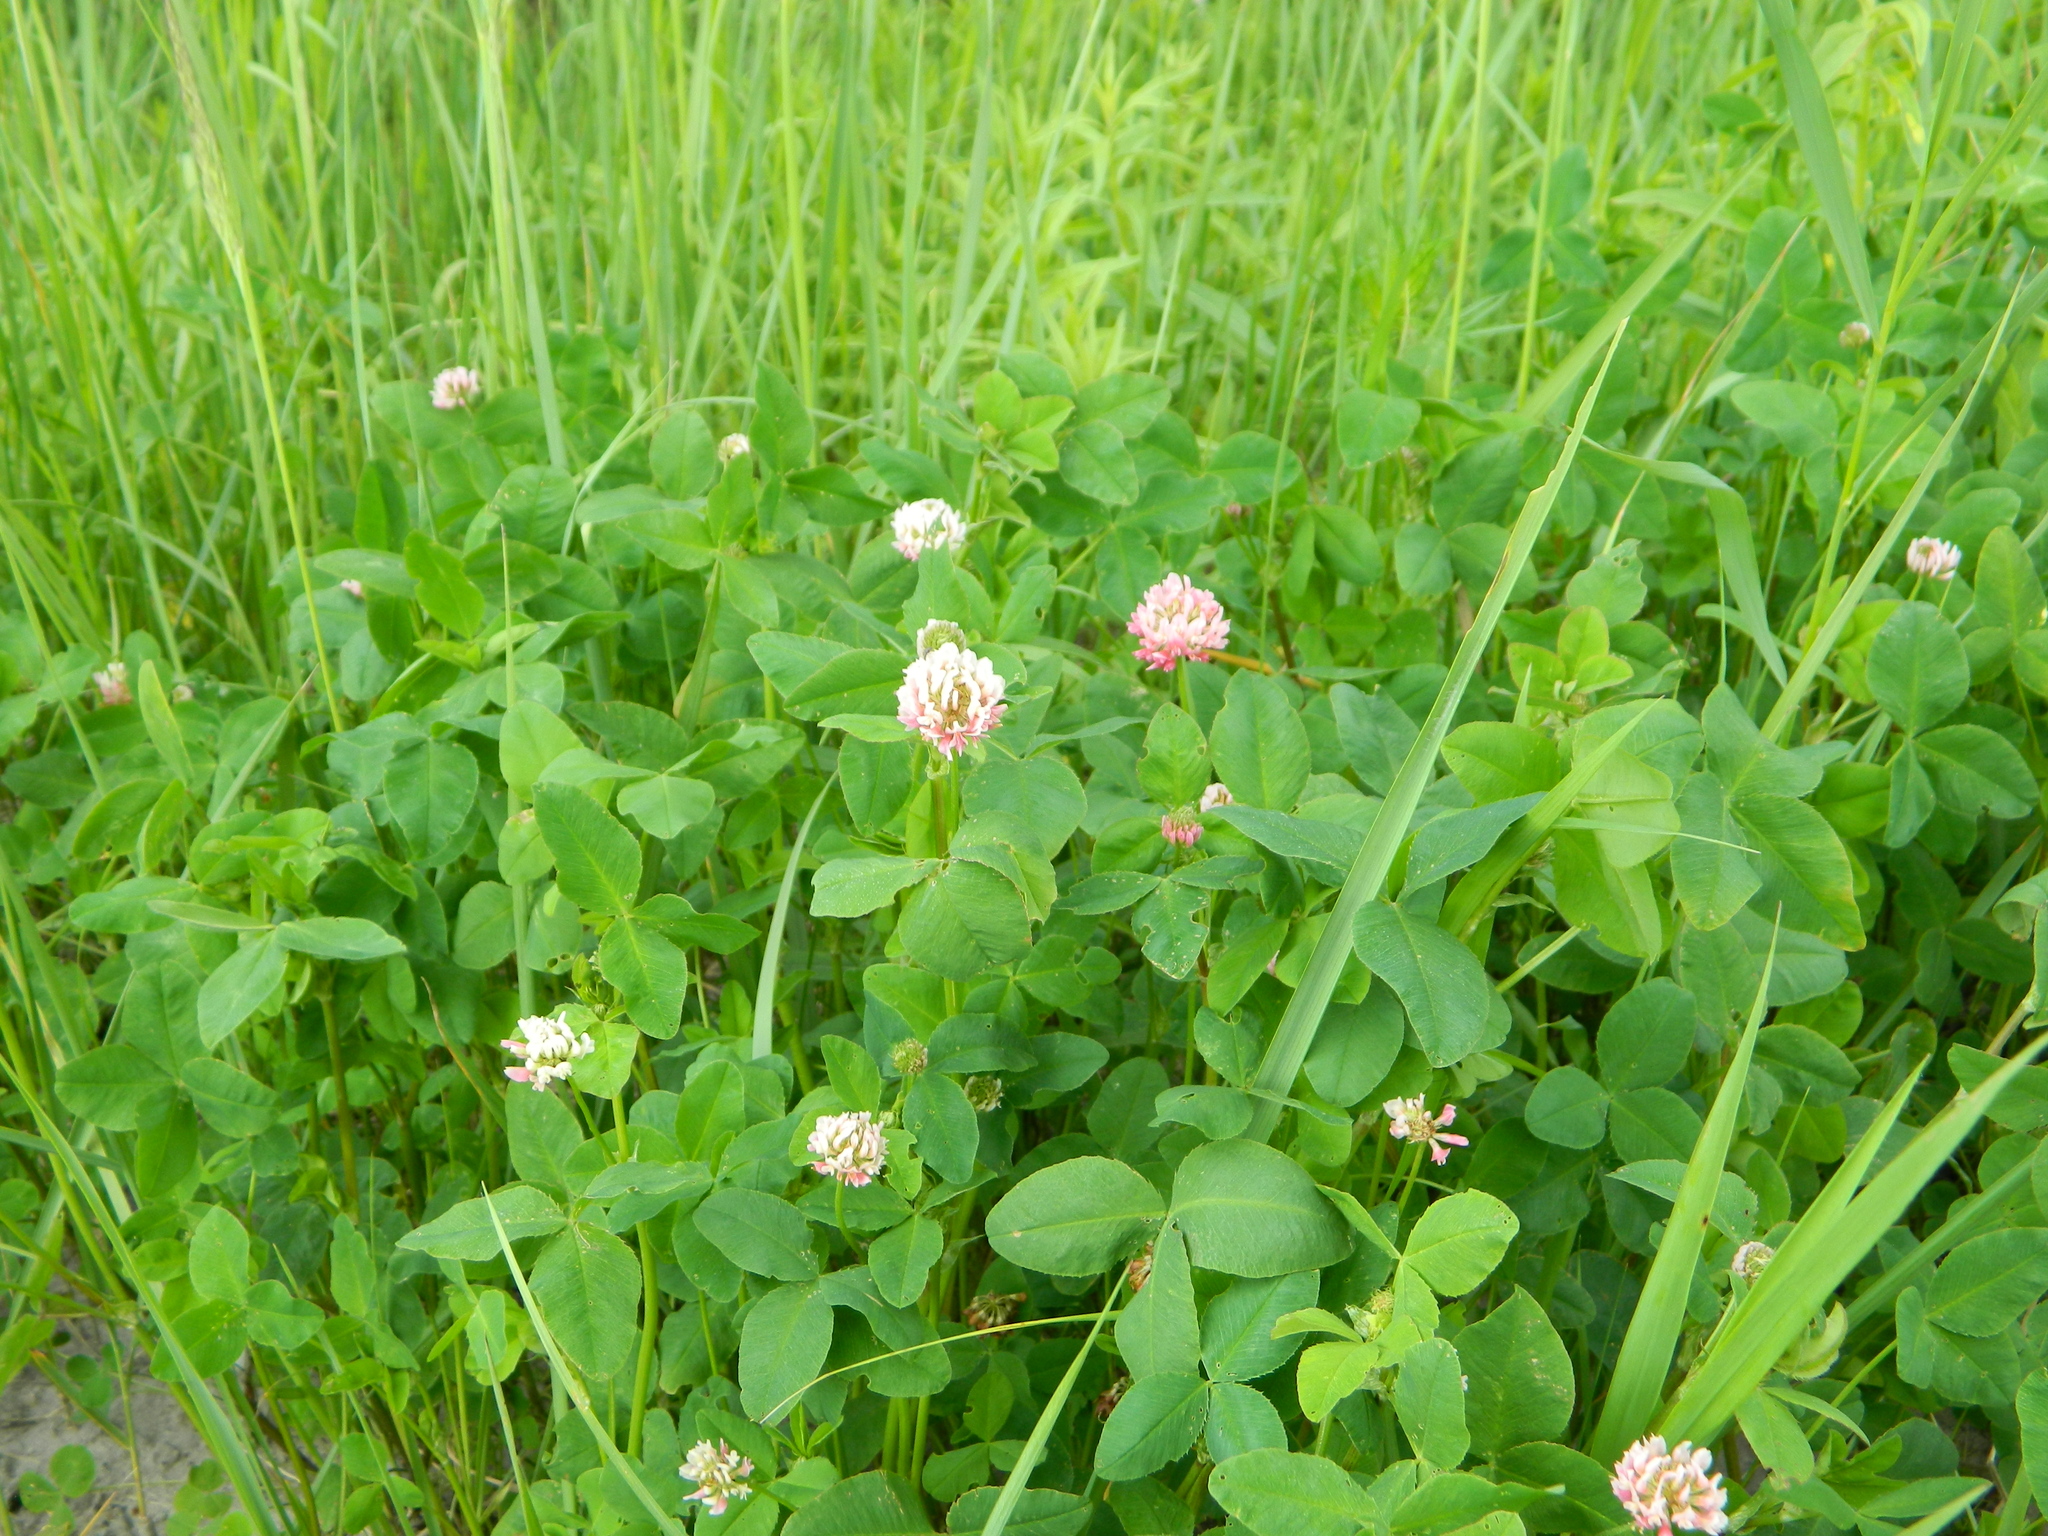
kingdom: Plantae
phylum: Tracheophyta
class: Magnoliopsida
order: Fabales
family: Fabaceae
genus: Trifolium
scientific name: Trifolium hybridum
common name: Alsike clover
